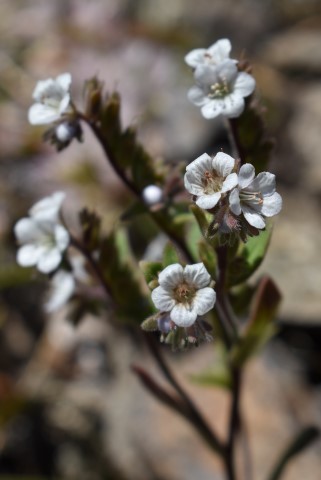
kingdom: Plantae
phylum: Tracheophyta
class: Magnoliopsida
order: Boraginales
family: Hydrophyllaceae
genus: Phacelia
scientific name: Phacelia verna
